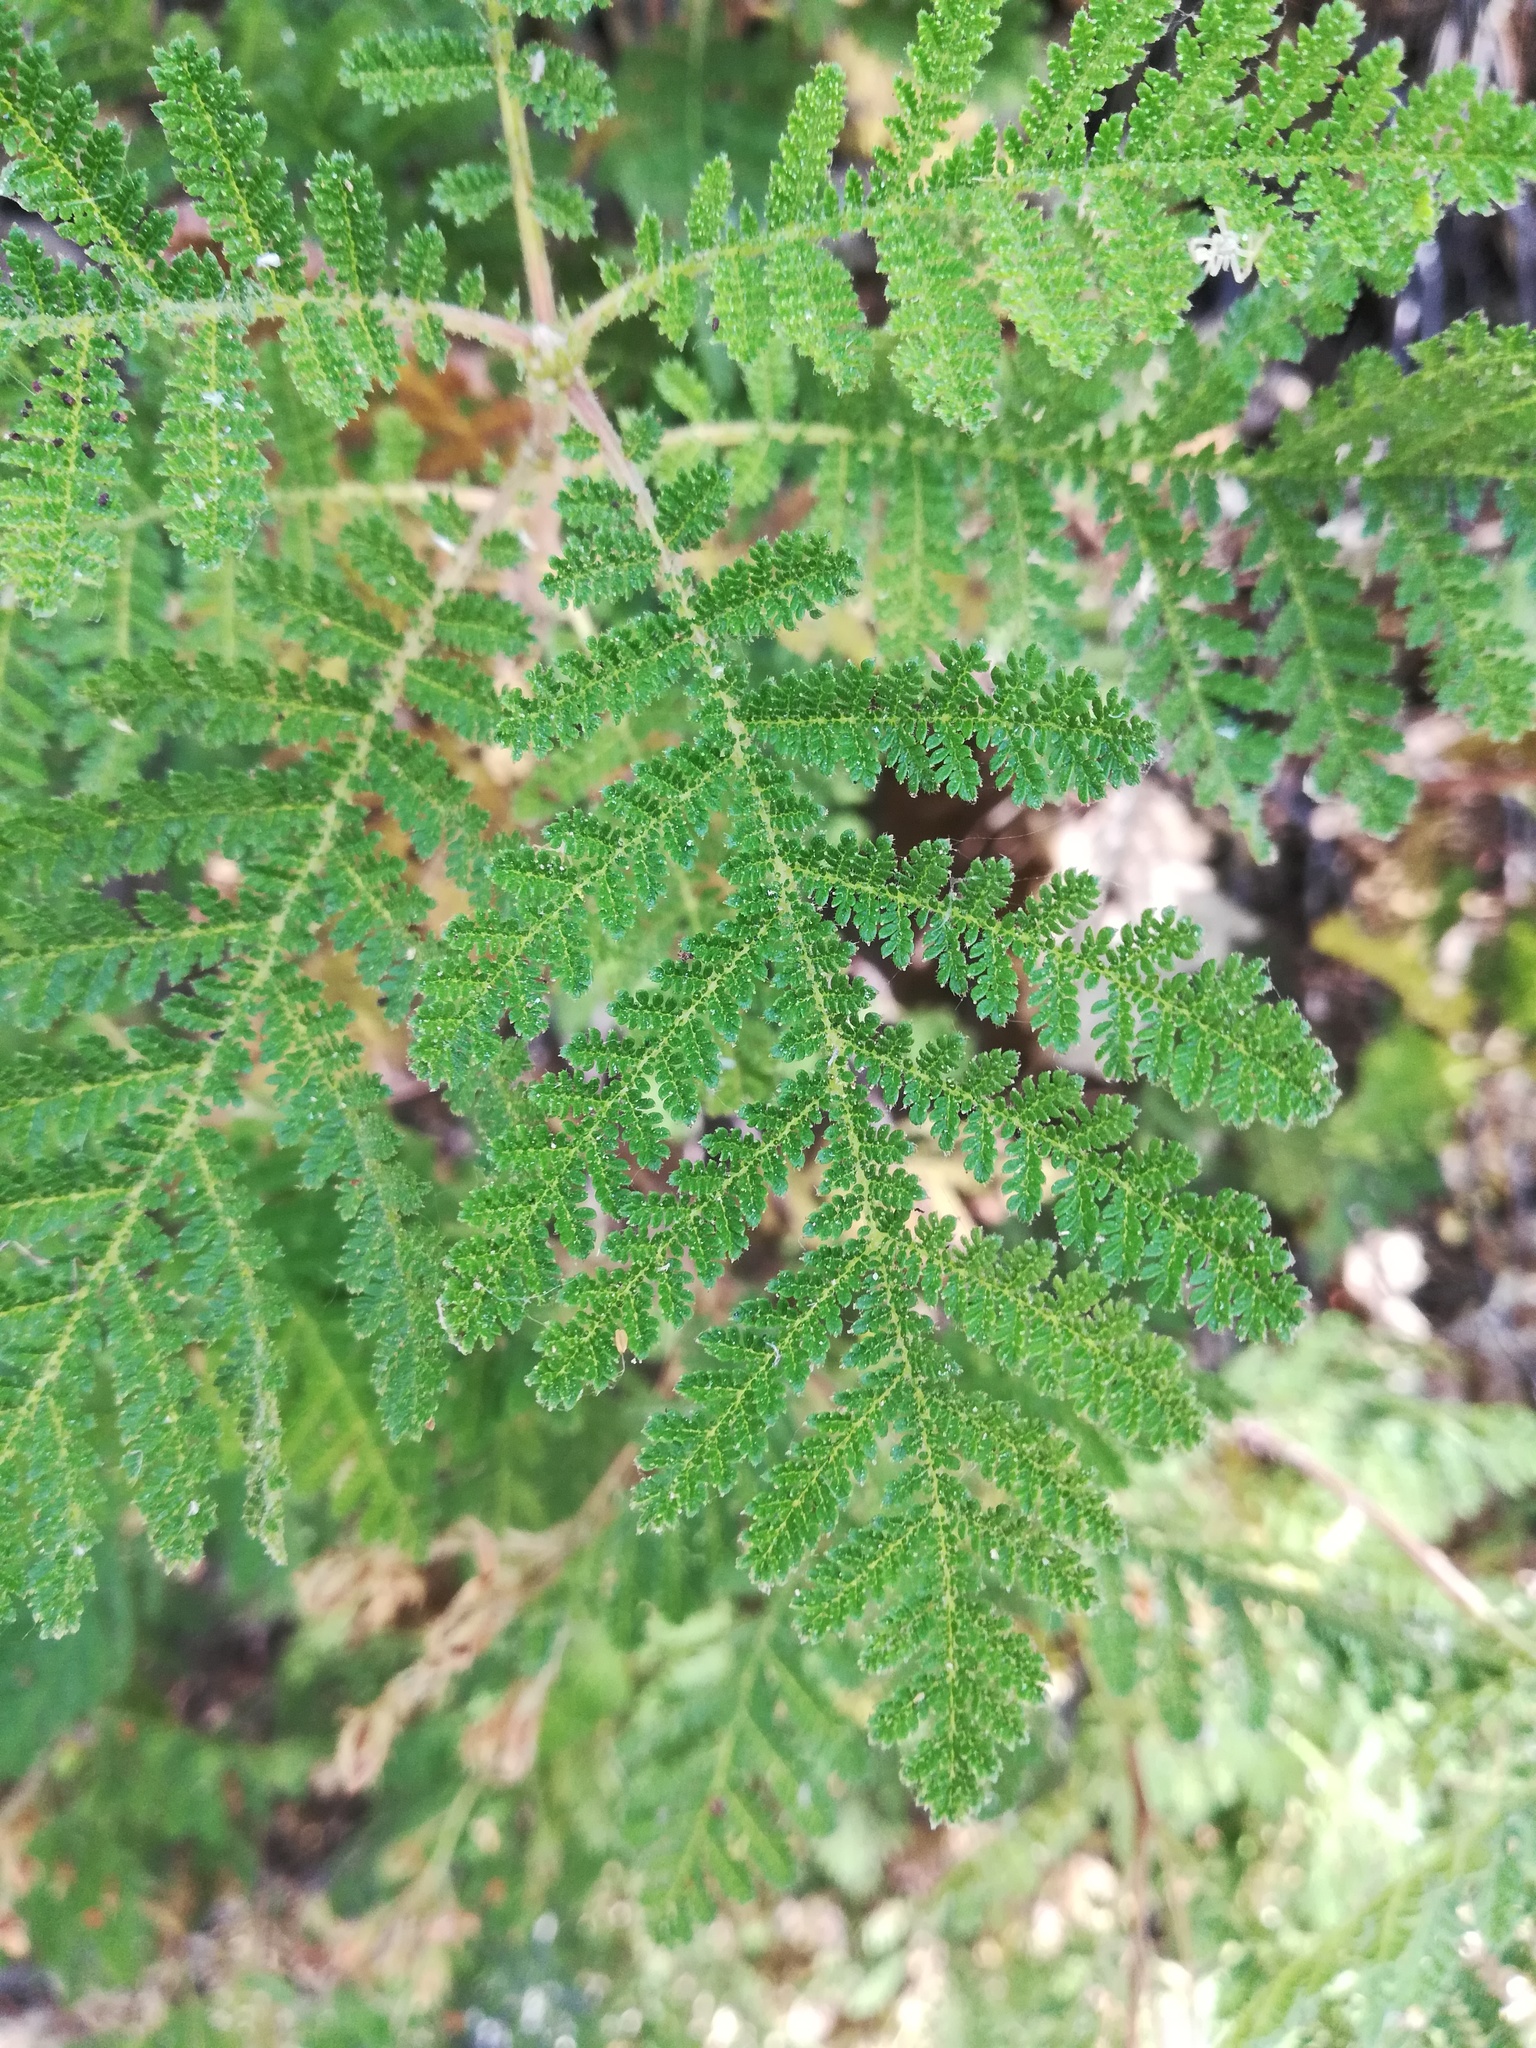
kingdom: Plantae
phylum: Tracheophyta
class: Magnoliopsida
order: Rosales
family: Rosaceae
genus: Chamaebatia
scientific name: Chamaebatia foliolosa
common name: Mountain misery
